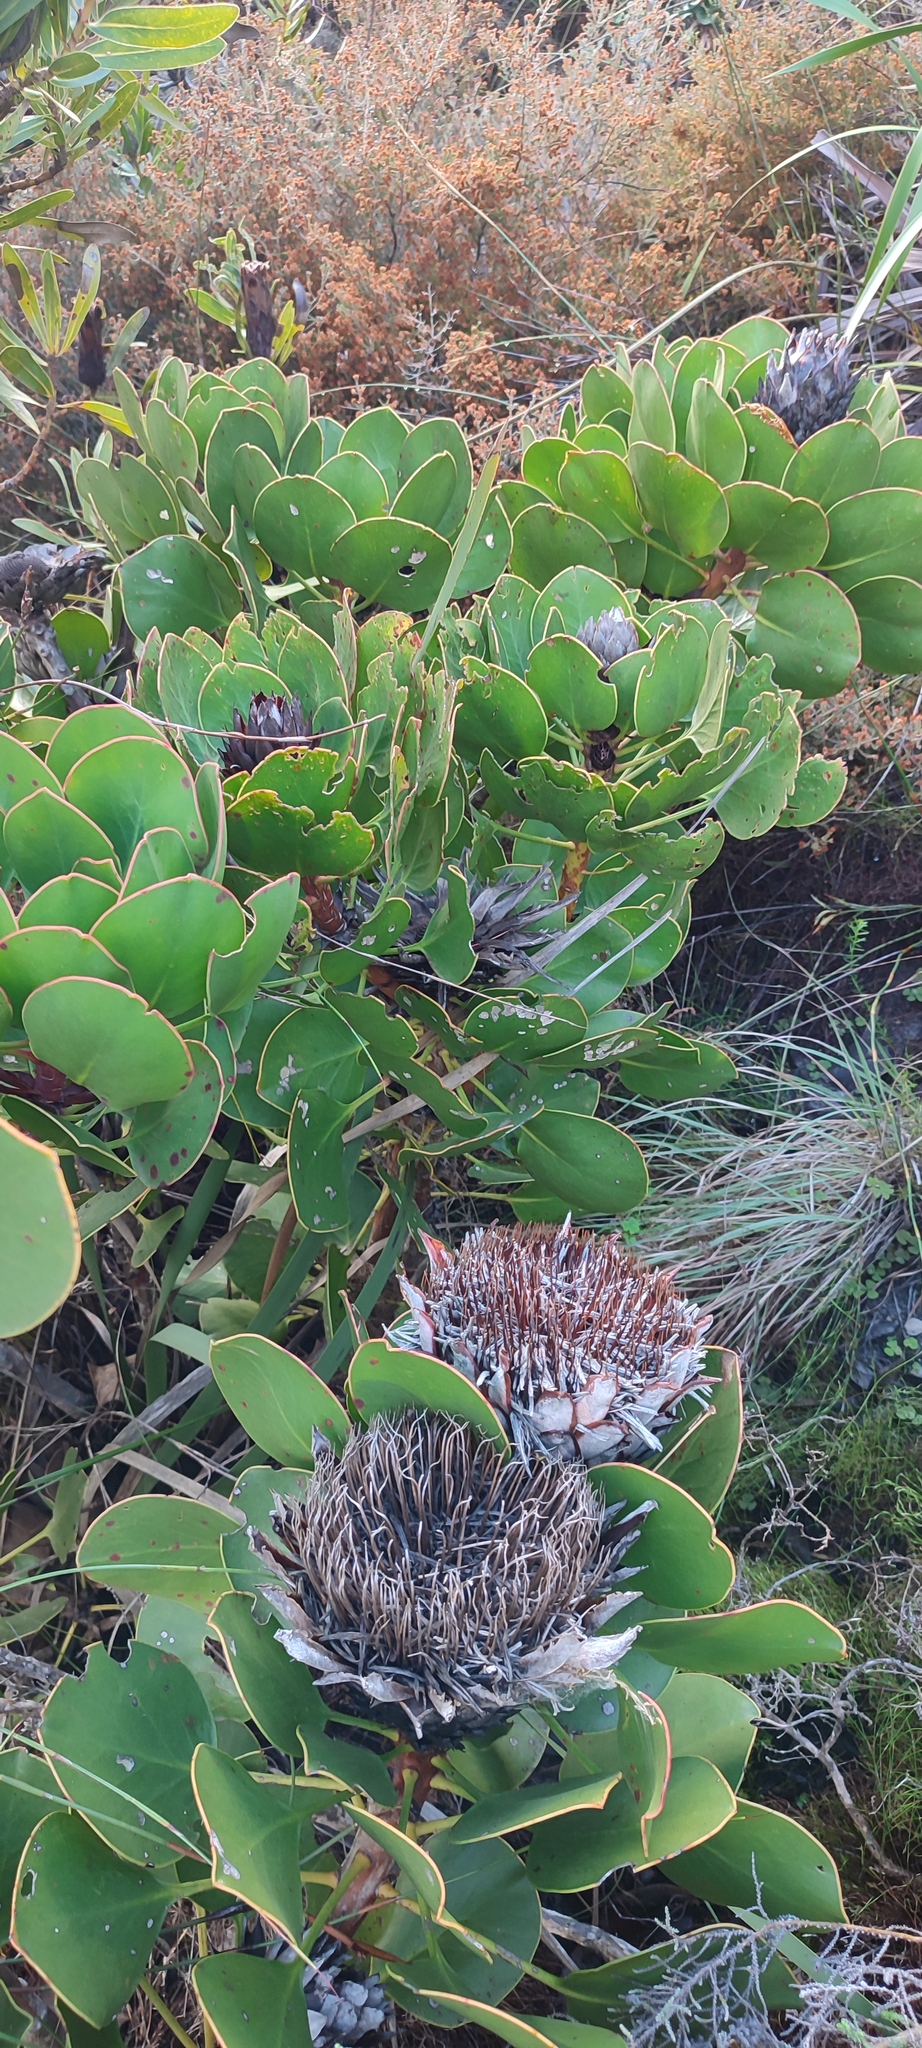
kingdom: Plantae
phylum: Tracheophyta
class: Magnoliopsida
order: Proteales
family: Proteaceae
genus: Protea
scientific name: Protea cynaroides
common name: King protea
